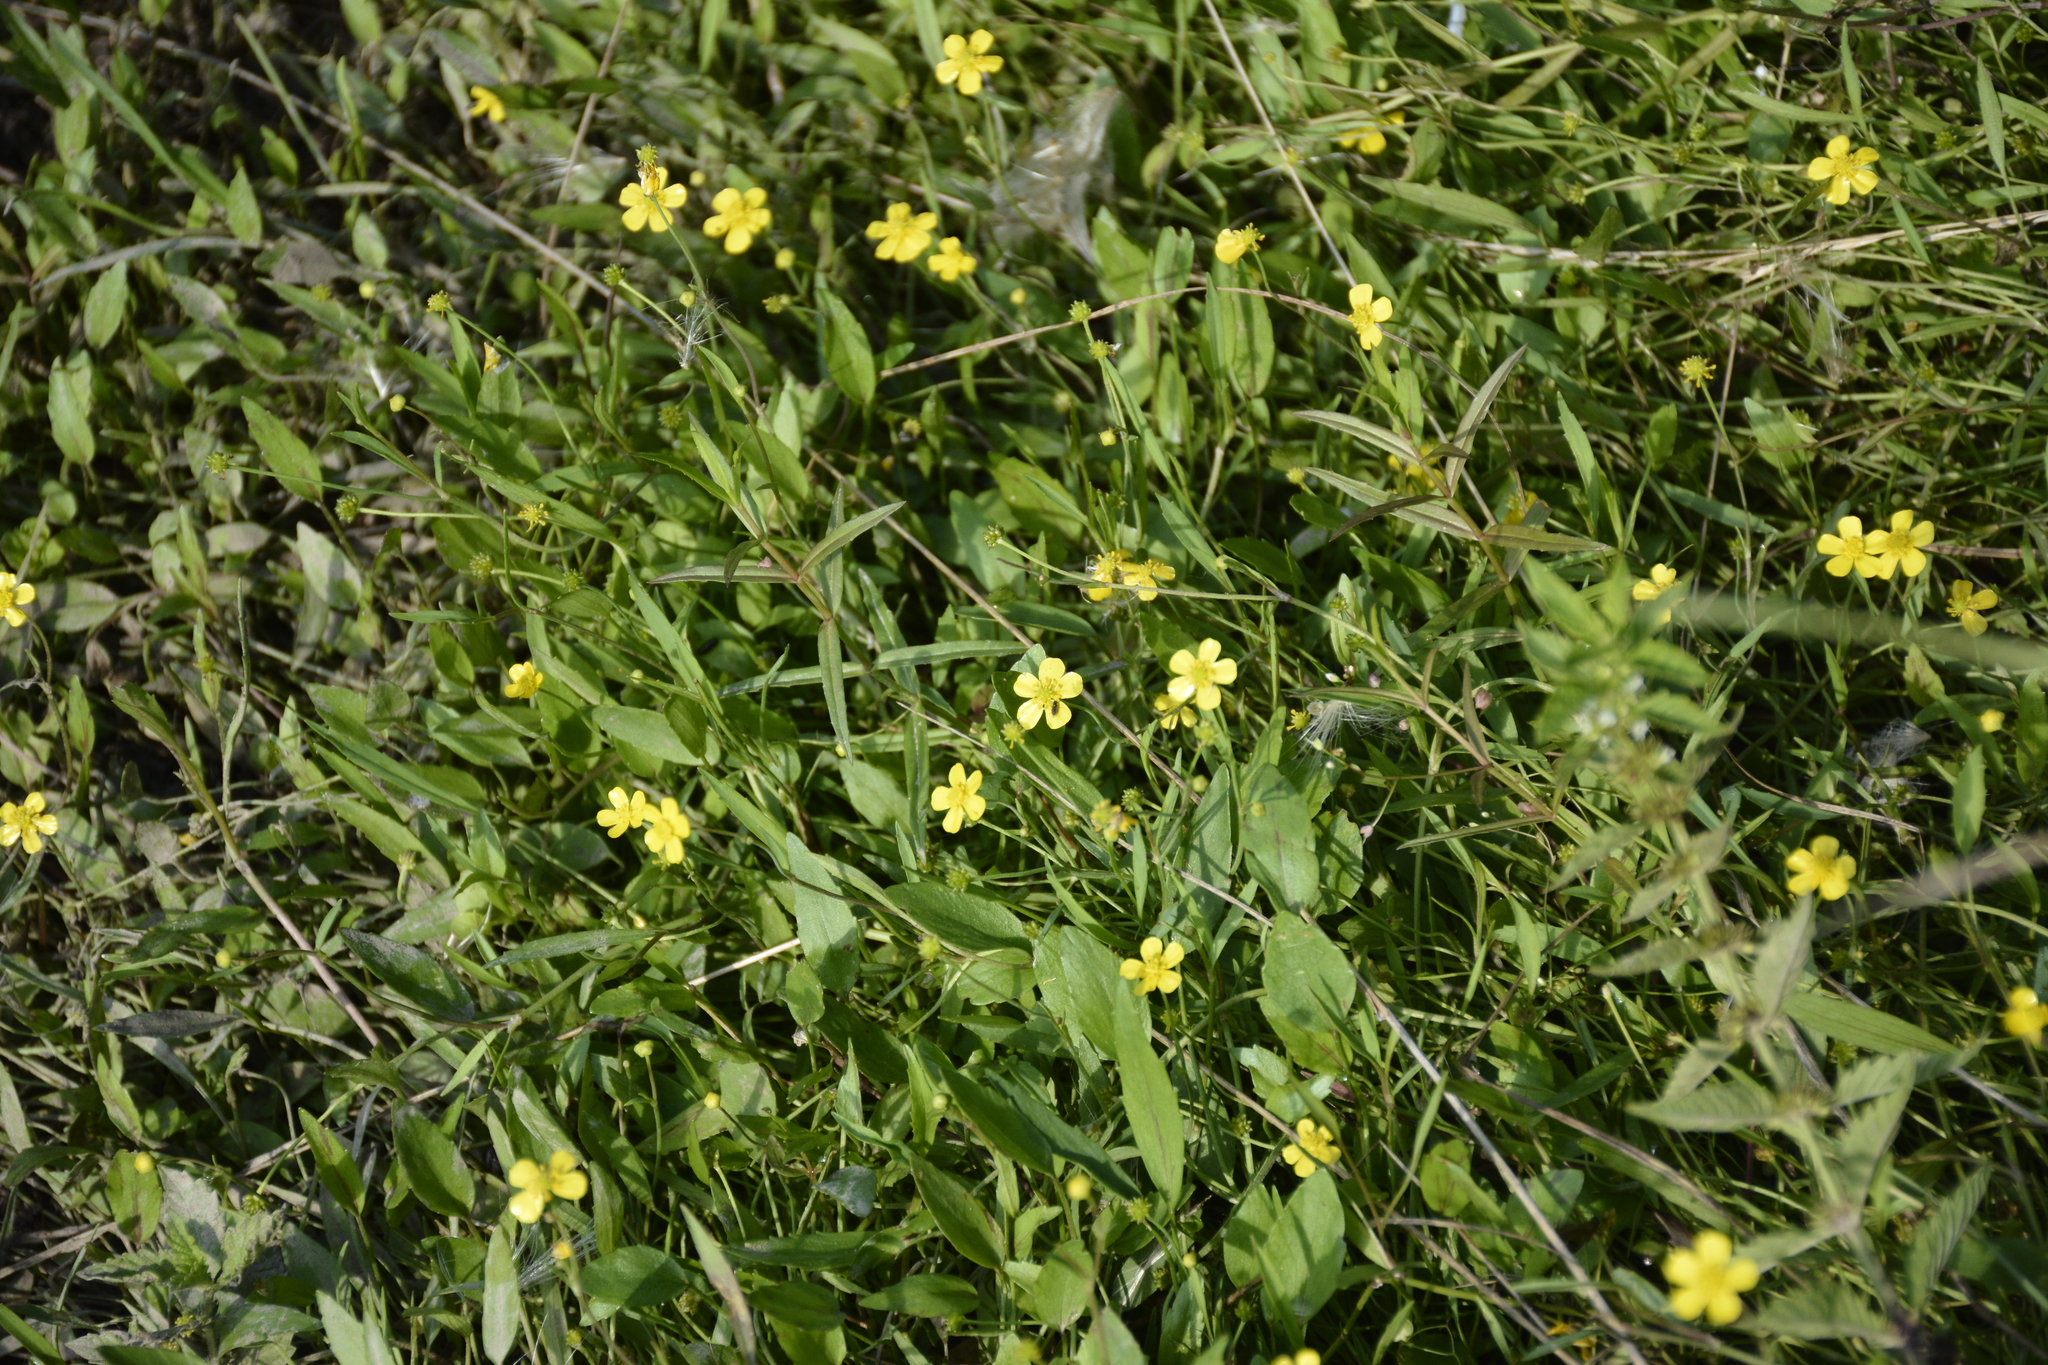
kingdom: Plantae
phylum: Tracheophyta
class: Magnoliopsida
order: Ranunculales
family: Ranunculaceae
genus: Ranunculus
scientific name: Ranunculus flammula
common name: Lesser spearwort
